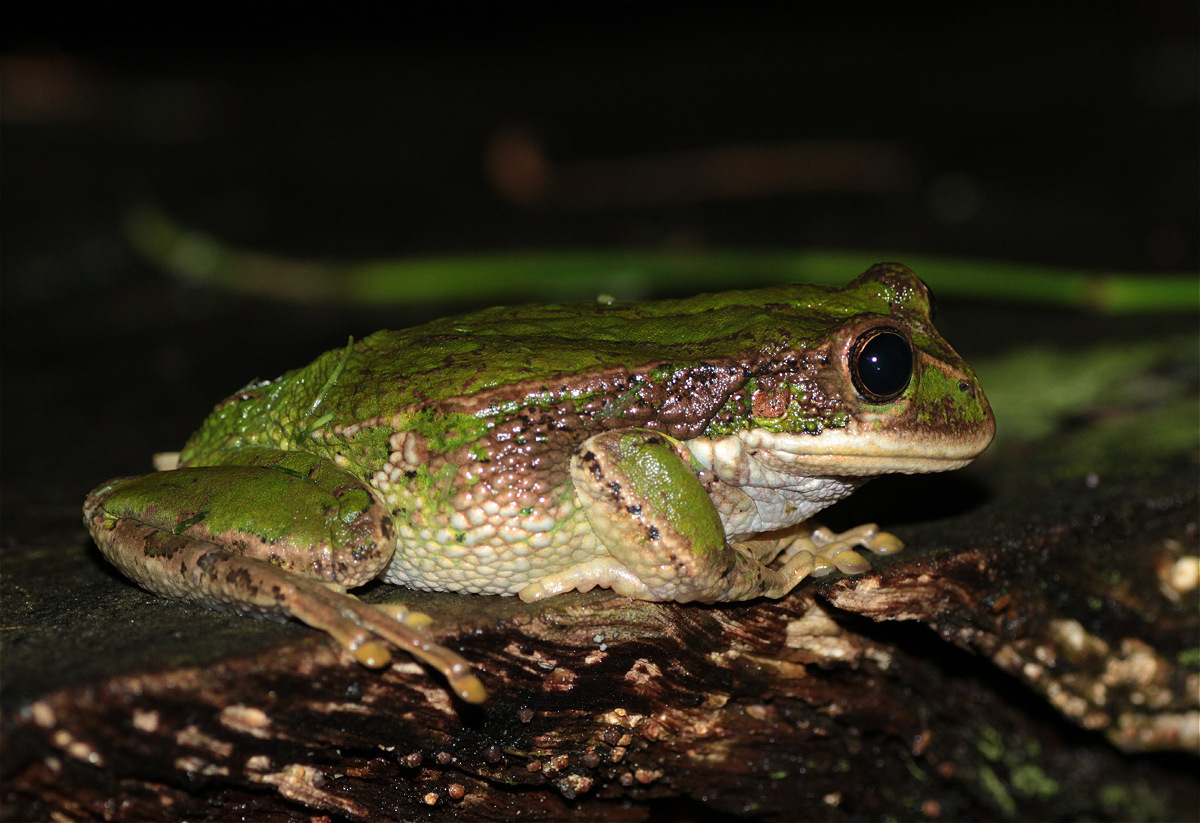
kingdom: Animalia
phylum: Chordata
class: Amphibia
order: Anura
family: Hemiphractidae
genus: Gastrotheca
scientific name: Gastrotheca cuencana
